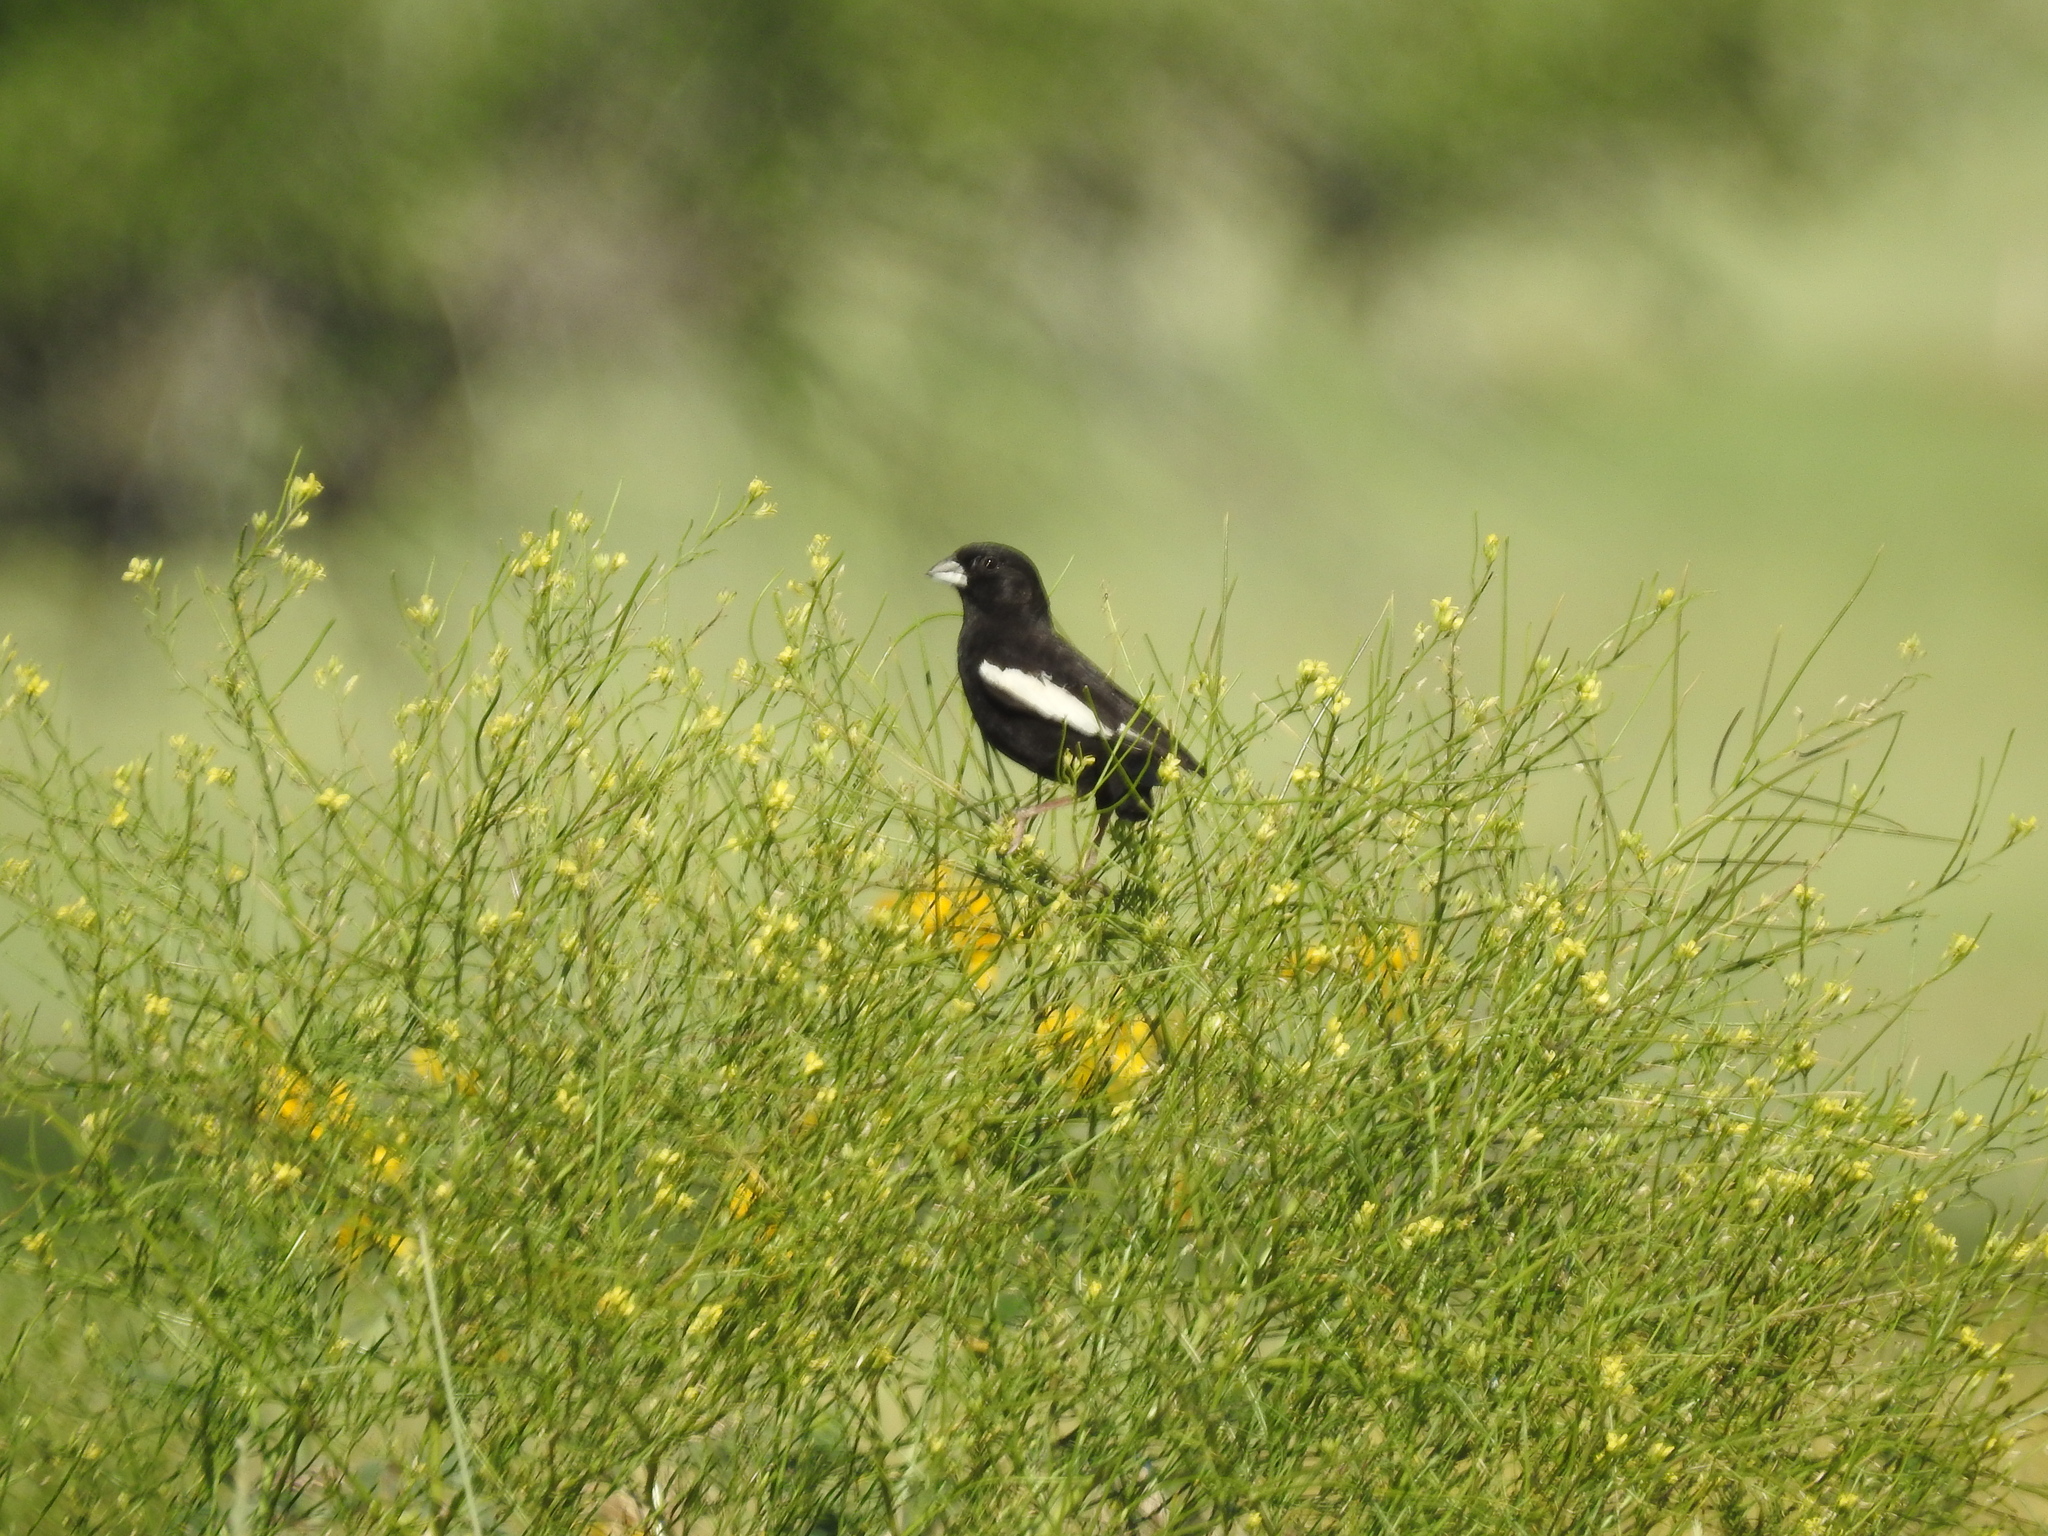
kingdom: Animalia
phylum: Chordata
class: Aves
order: Passeriformes
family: Passerellidae
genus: Calamospiza
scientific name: Calamospiza melanocorys
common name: Lark bunting
